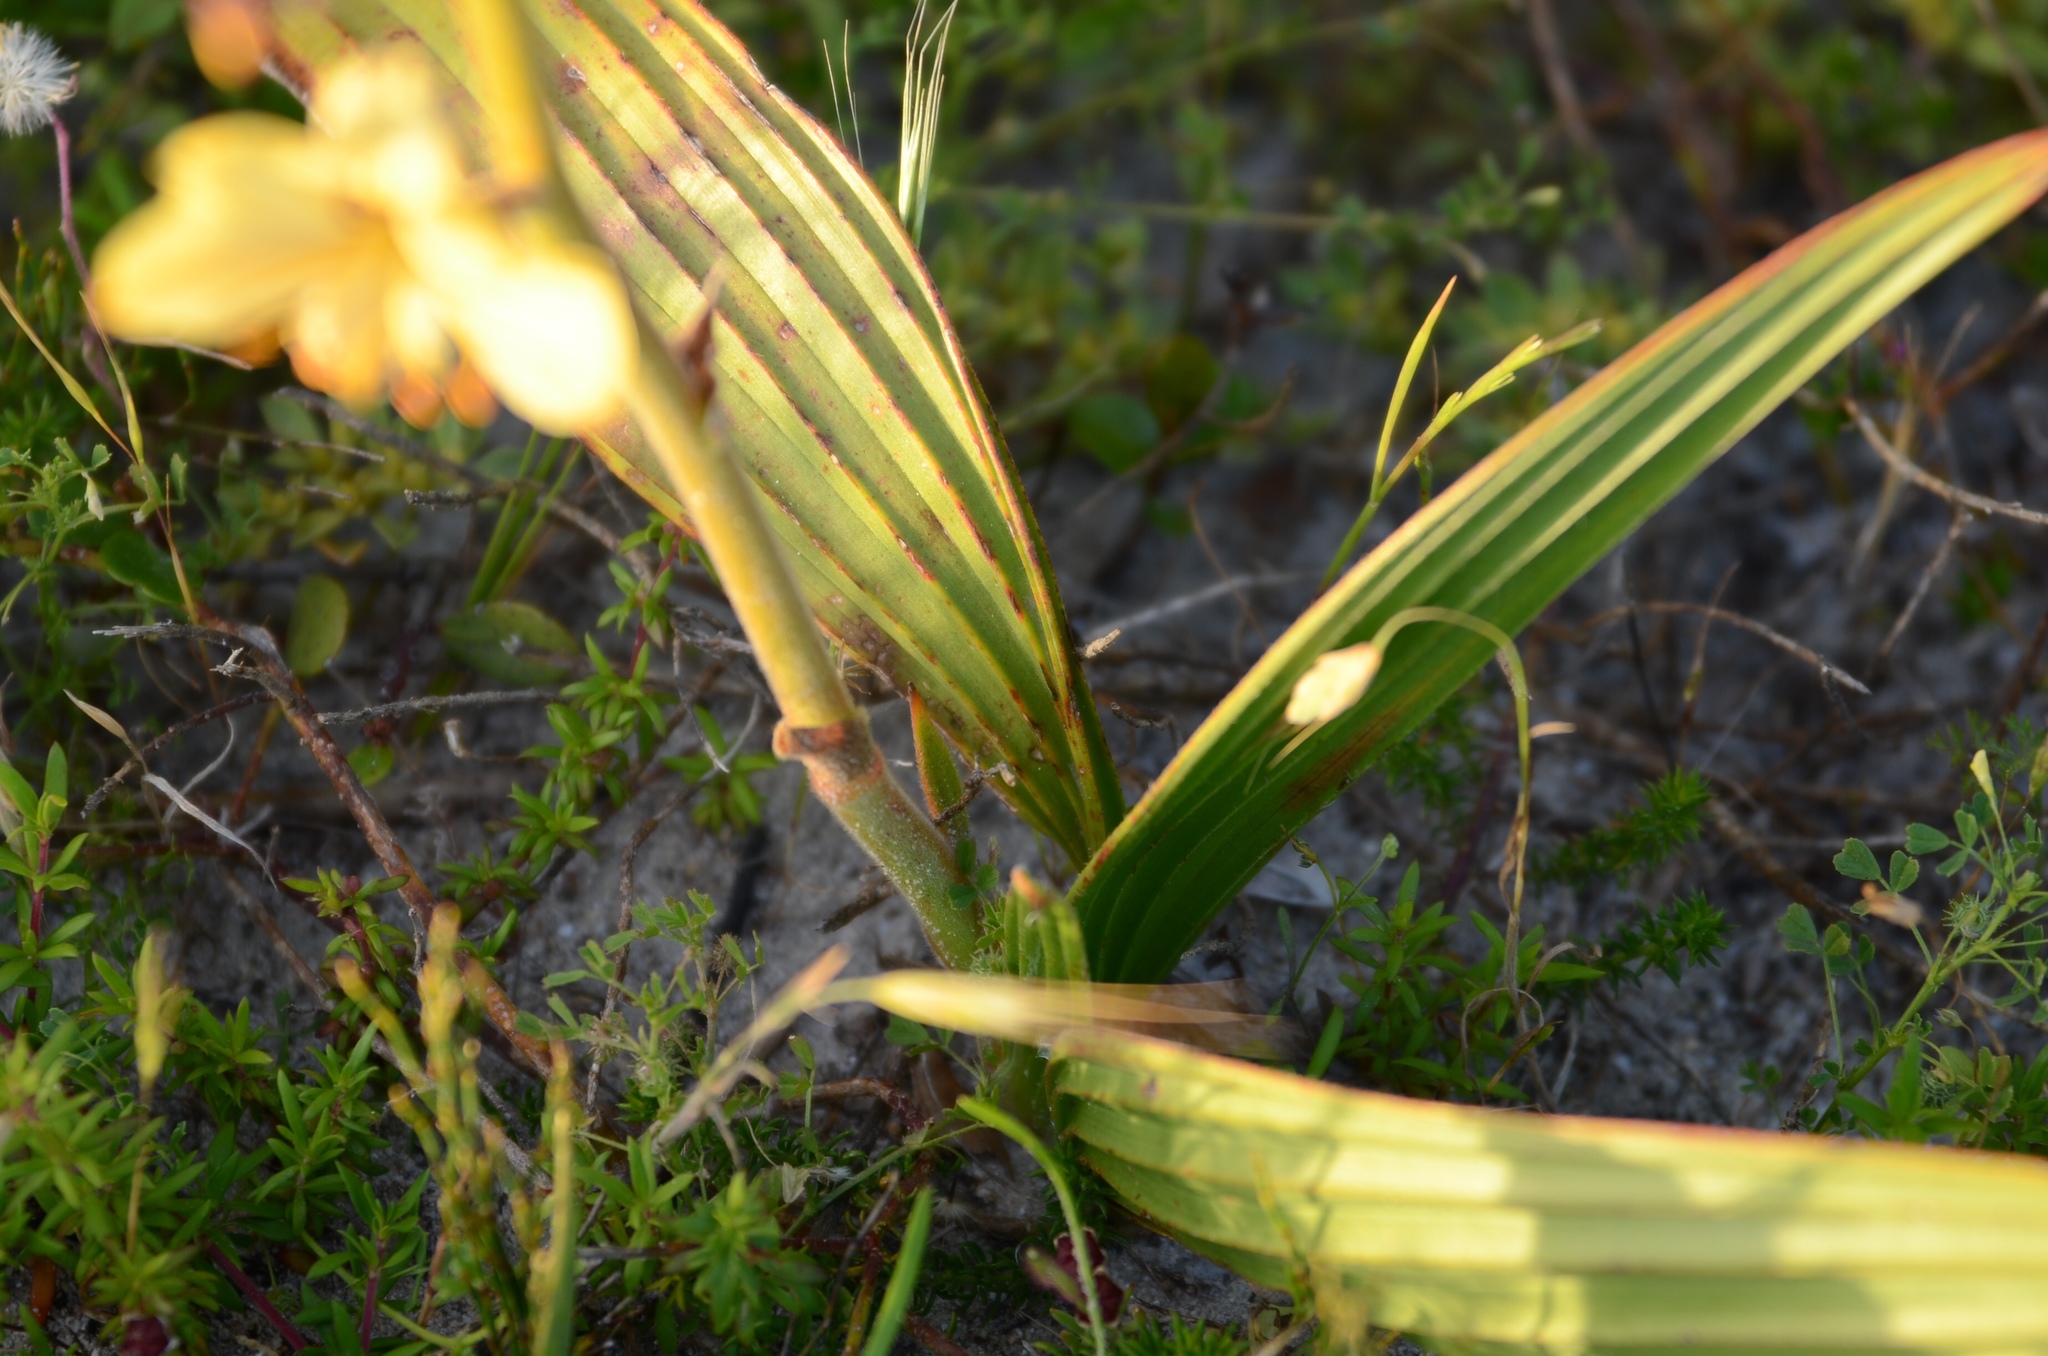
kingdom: Plantae
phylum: Tracheophyta
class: Liliopsida
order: Commelinales
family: Haemodoraceae
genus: Wachendorfia
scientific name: Wachendorfia paniculata
